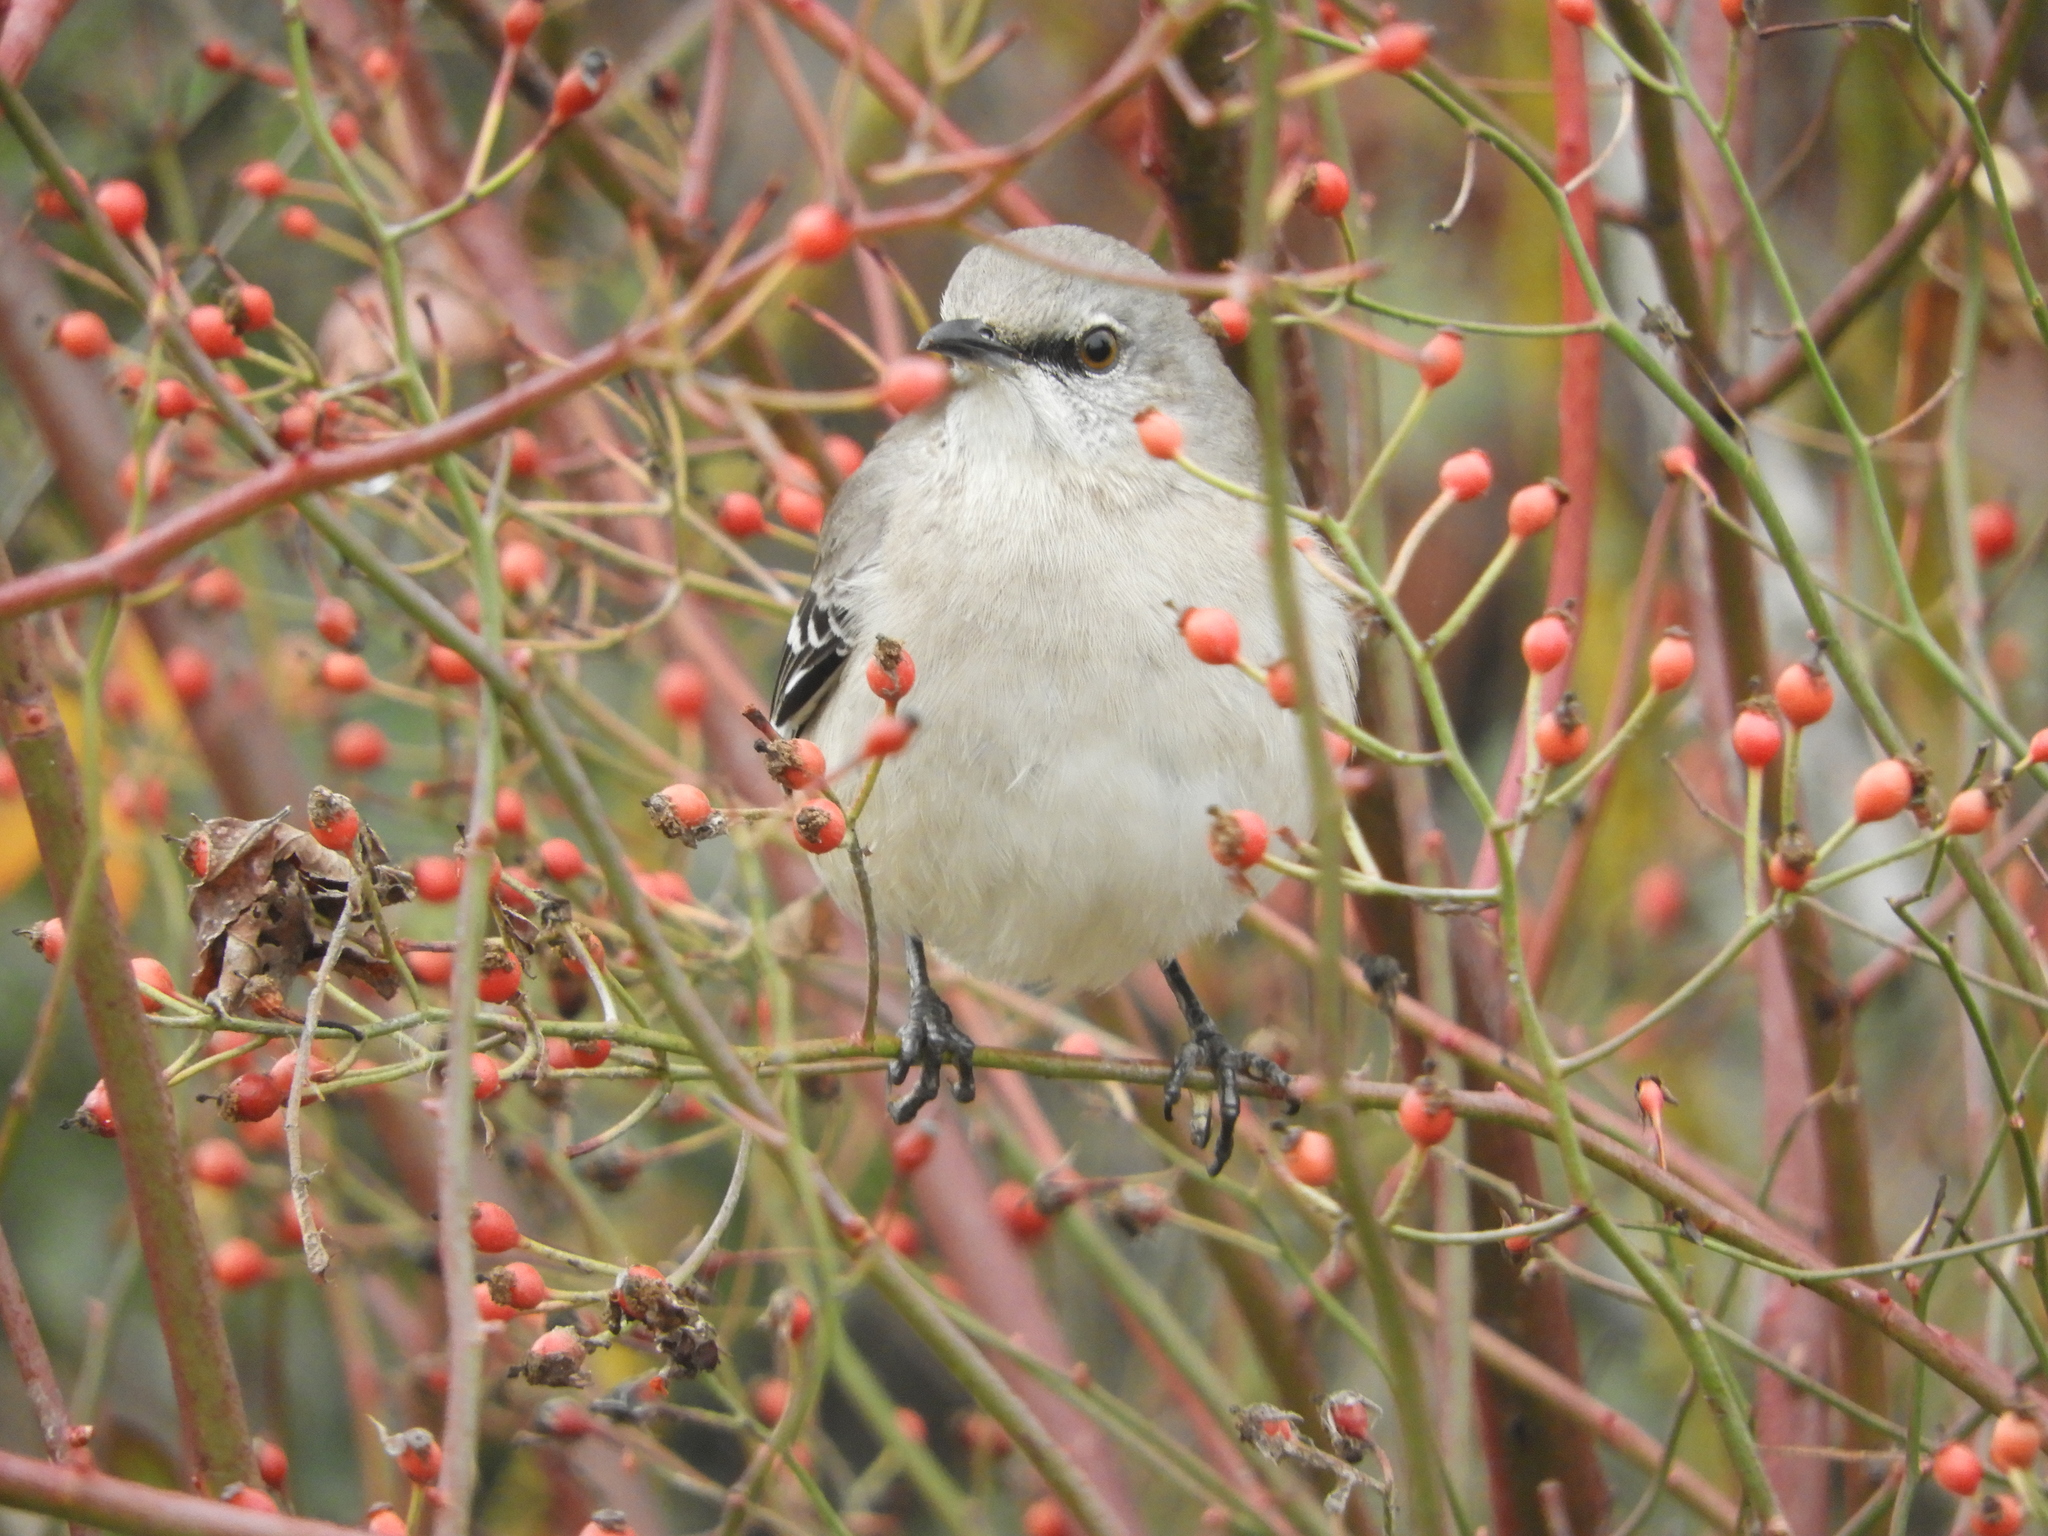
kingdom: Animalia
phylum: Chordata
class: Aves
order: Passeriformes
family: Mimidae
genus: Mimus
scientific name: Mimus polyglottos
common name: Northern mockingbird
